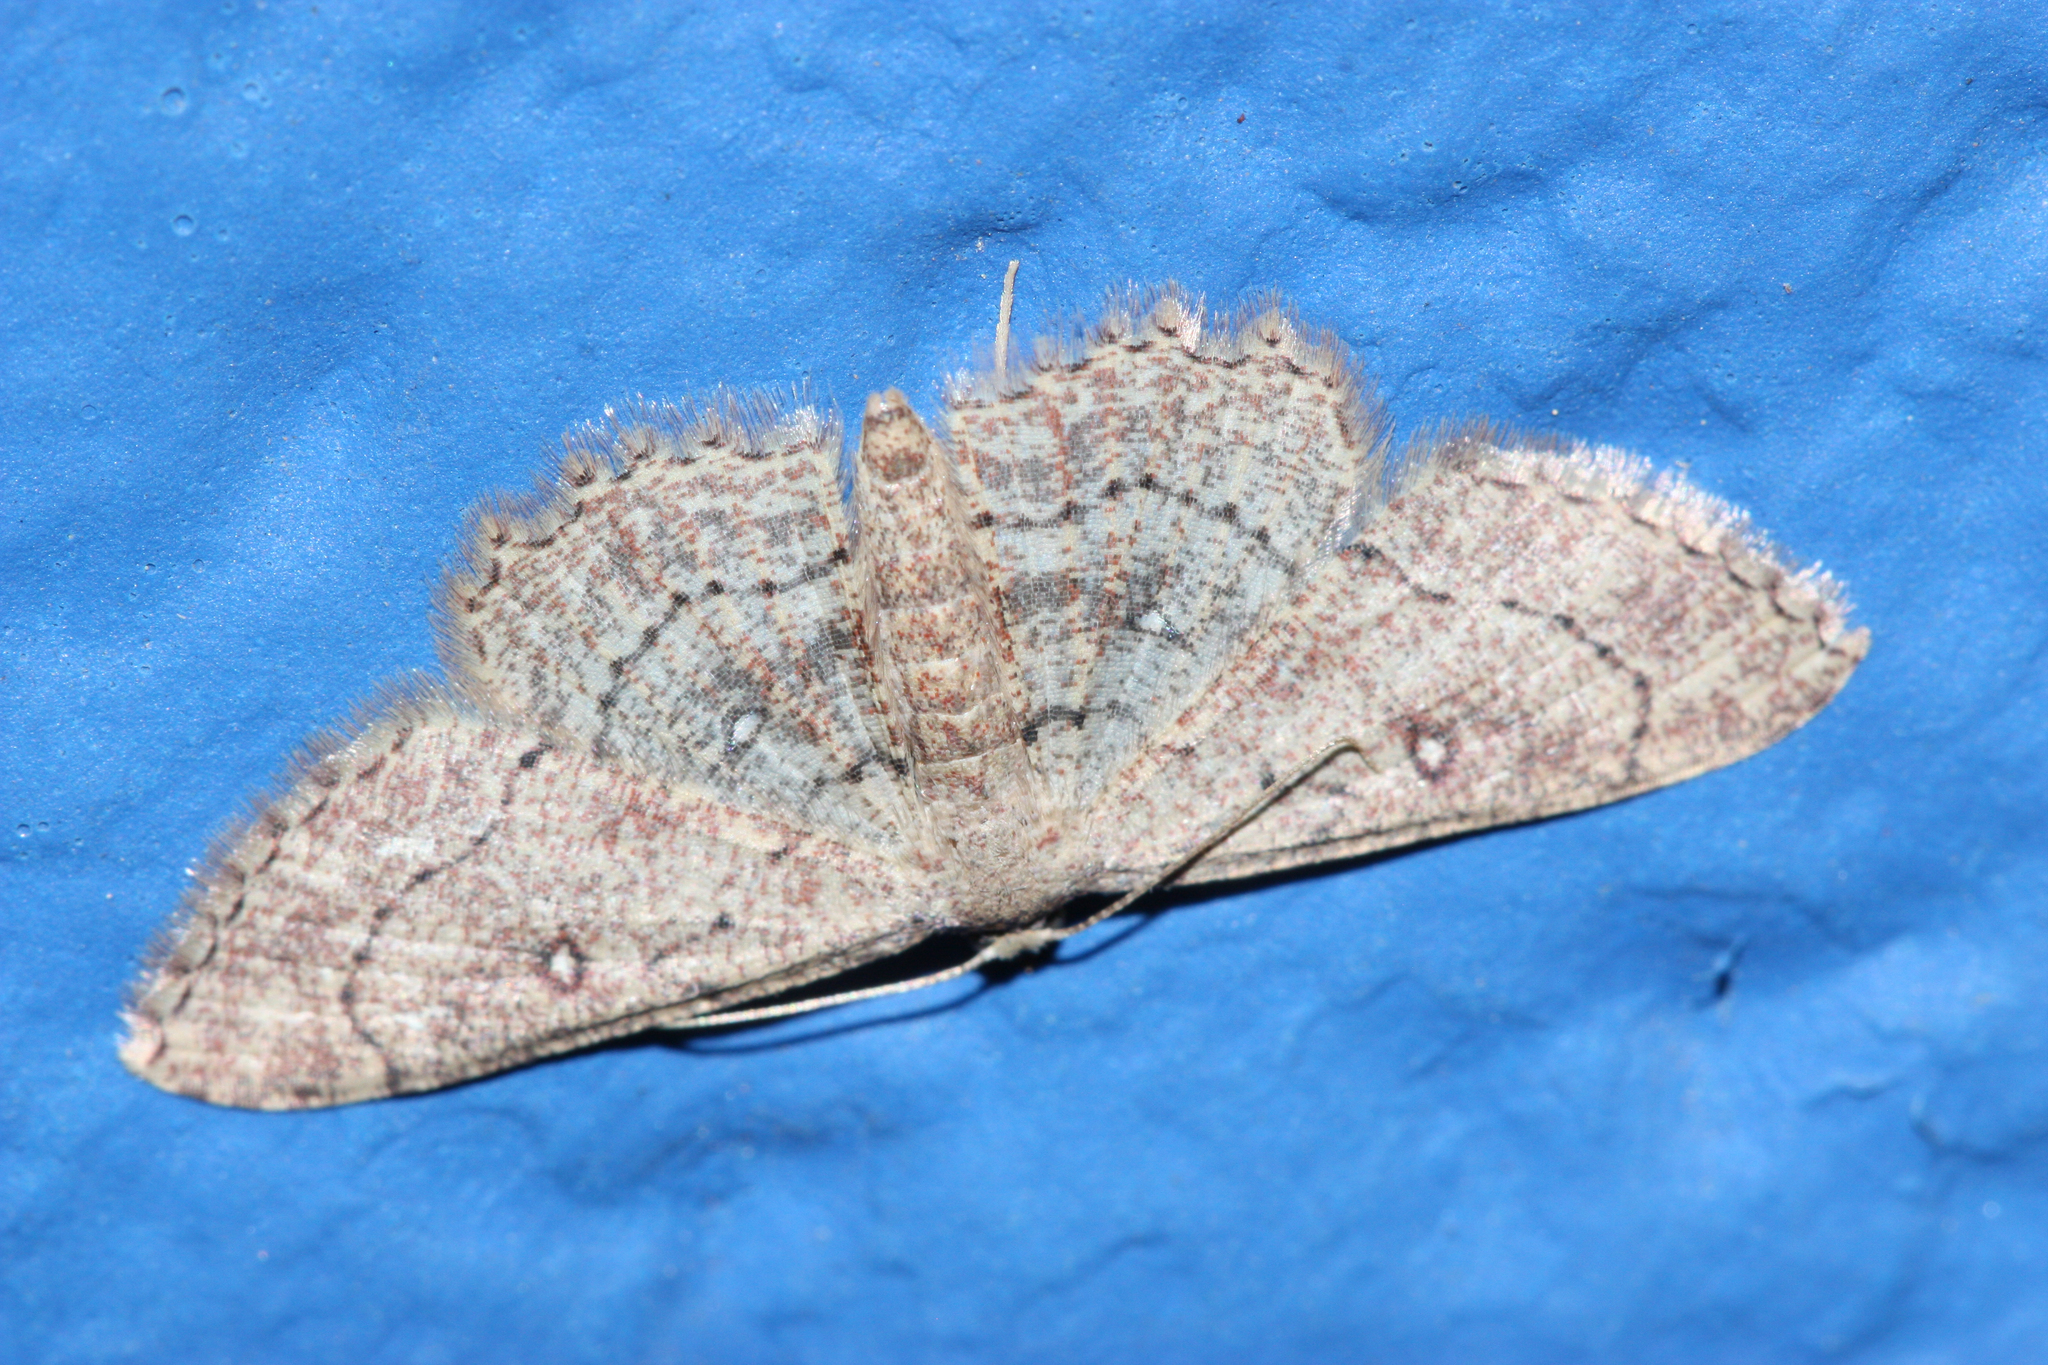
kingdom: Animalia
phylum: Arthropoda
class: Insecta
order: Lepidoptera
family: Geometridae
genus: Cyclophora
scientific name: Cyclophora nanaria
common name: Cankerworm
